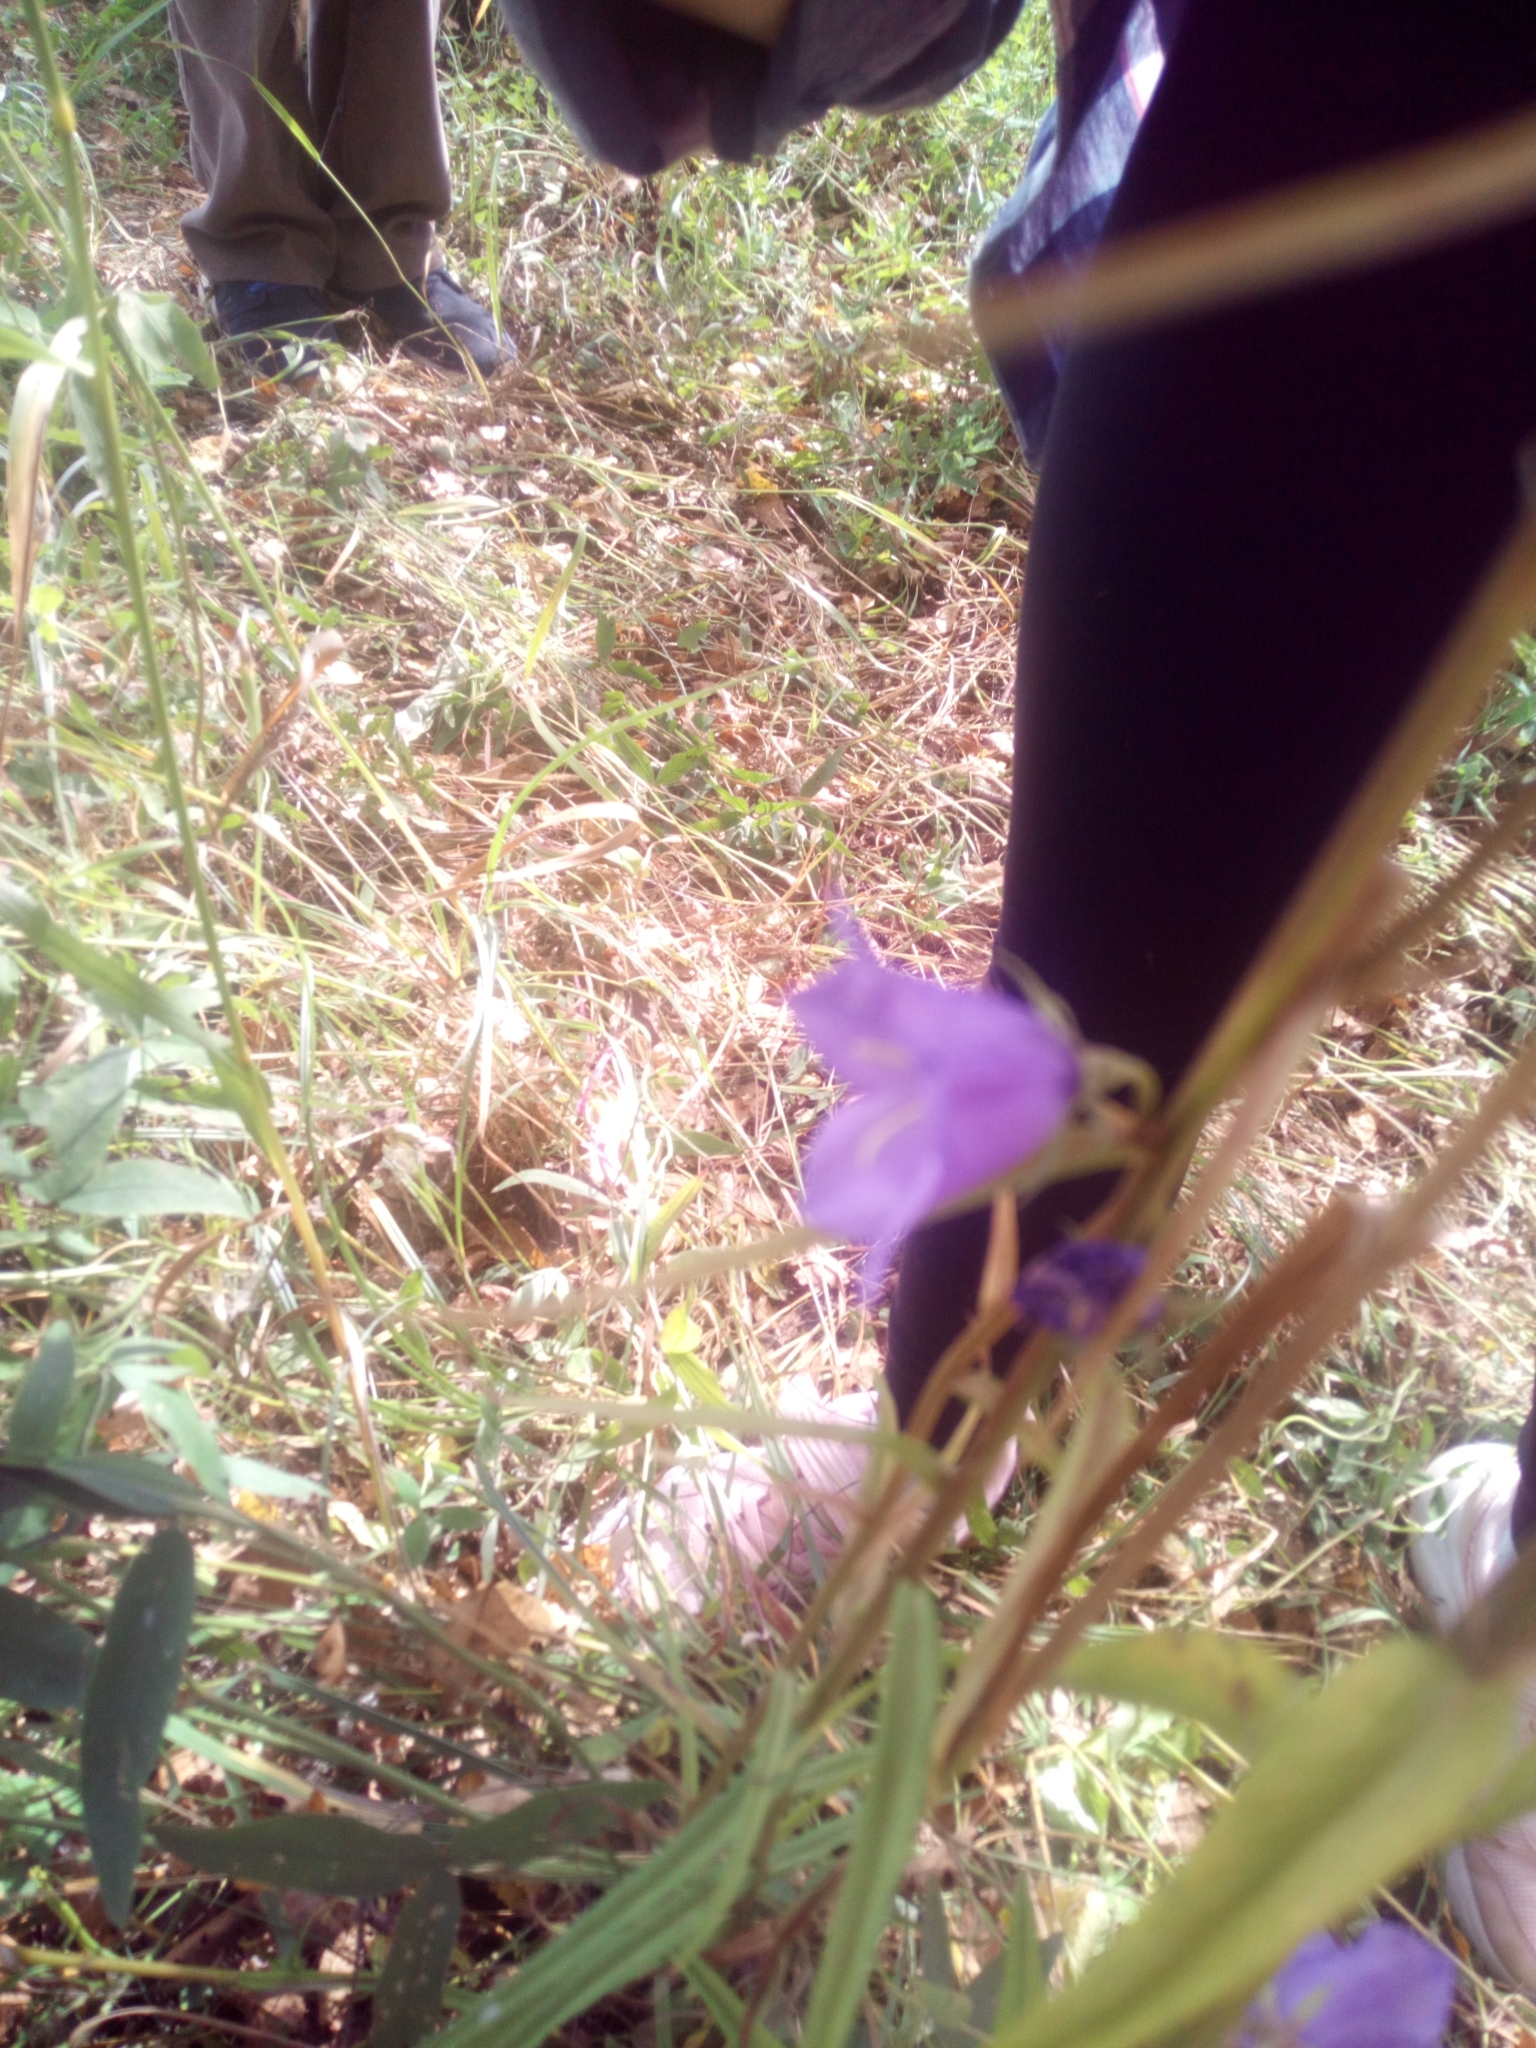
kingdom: Plantae
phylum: Tracheophyta
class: Magnoliopsida
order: Asterales
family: Campanulaceae
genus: Campanula
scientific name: Campanula persicifolia
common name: Peach-leaved bellflower
